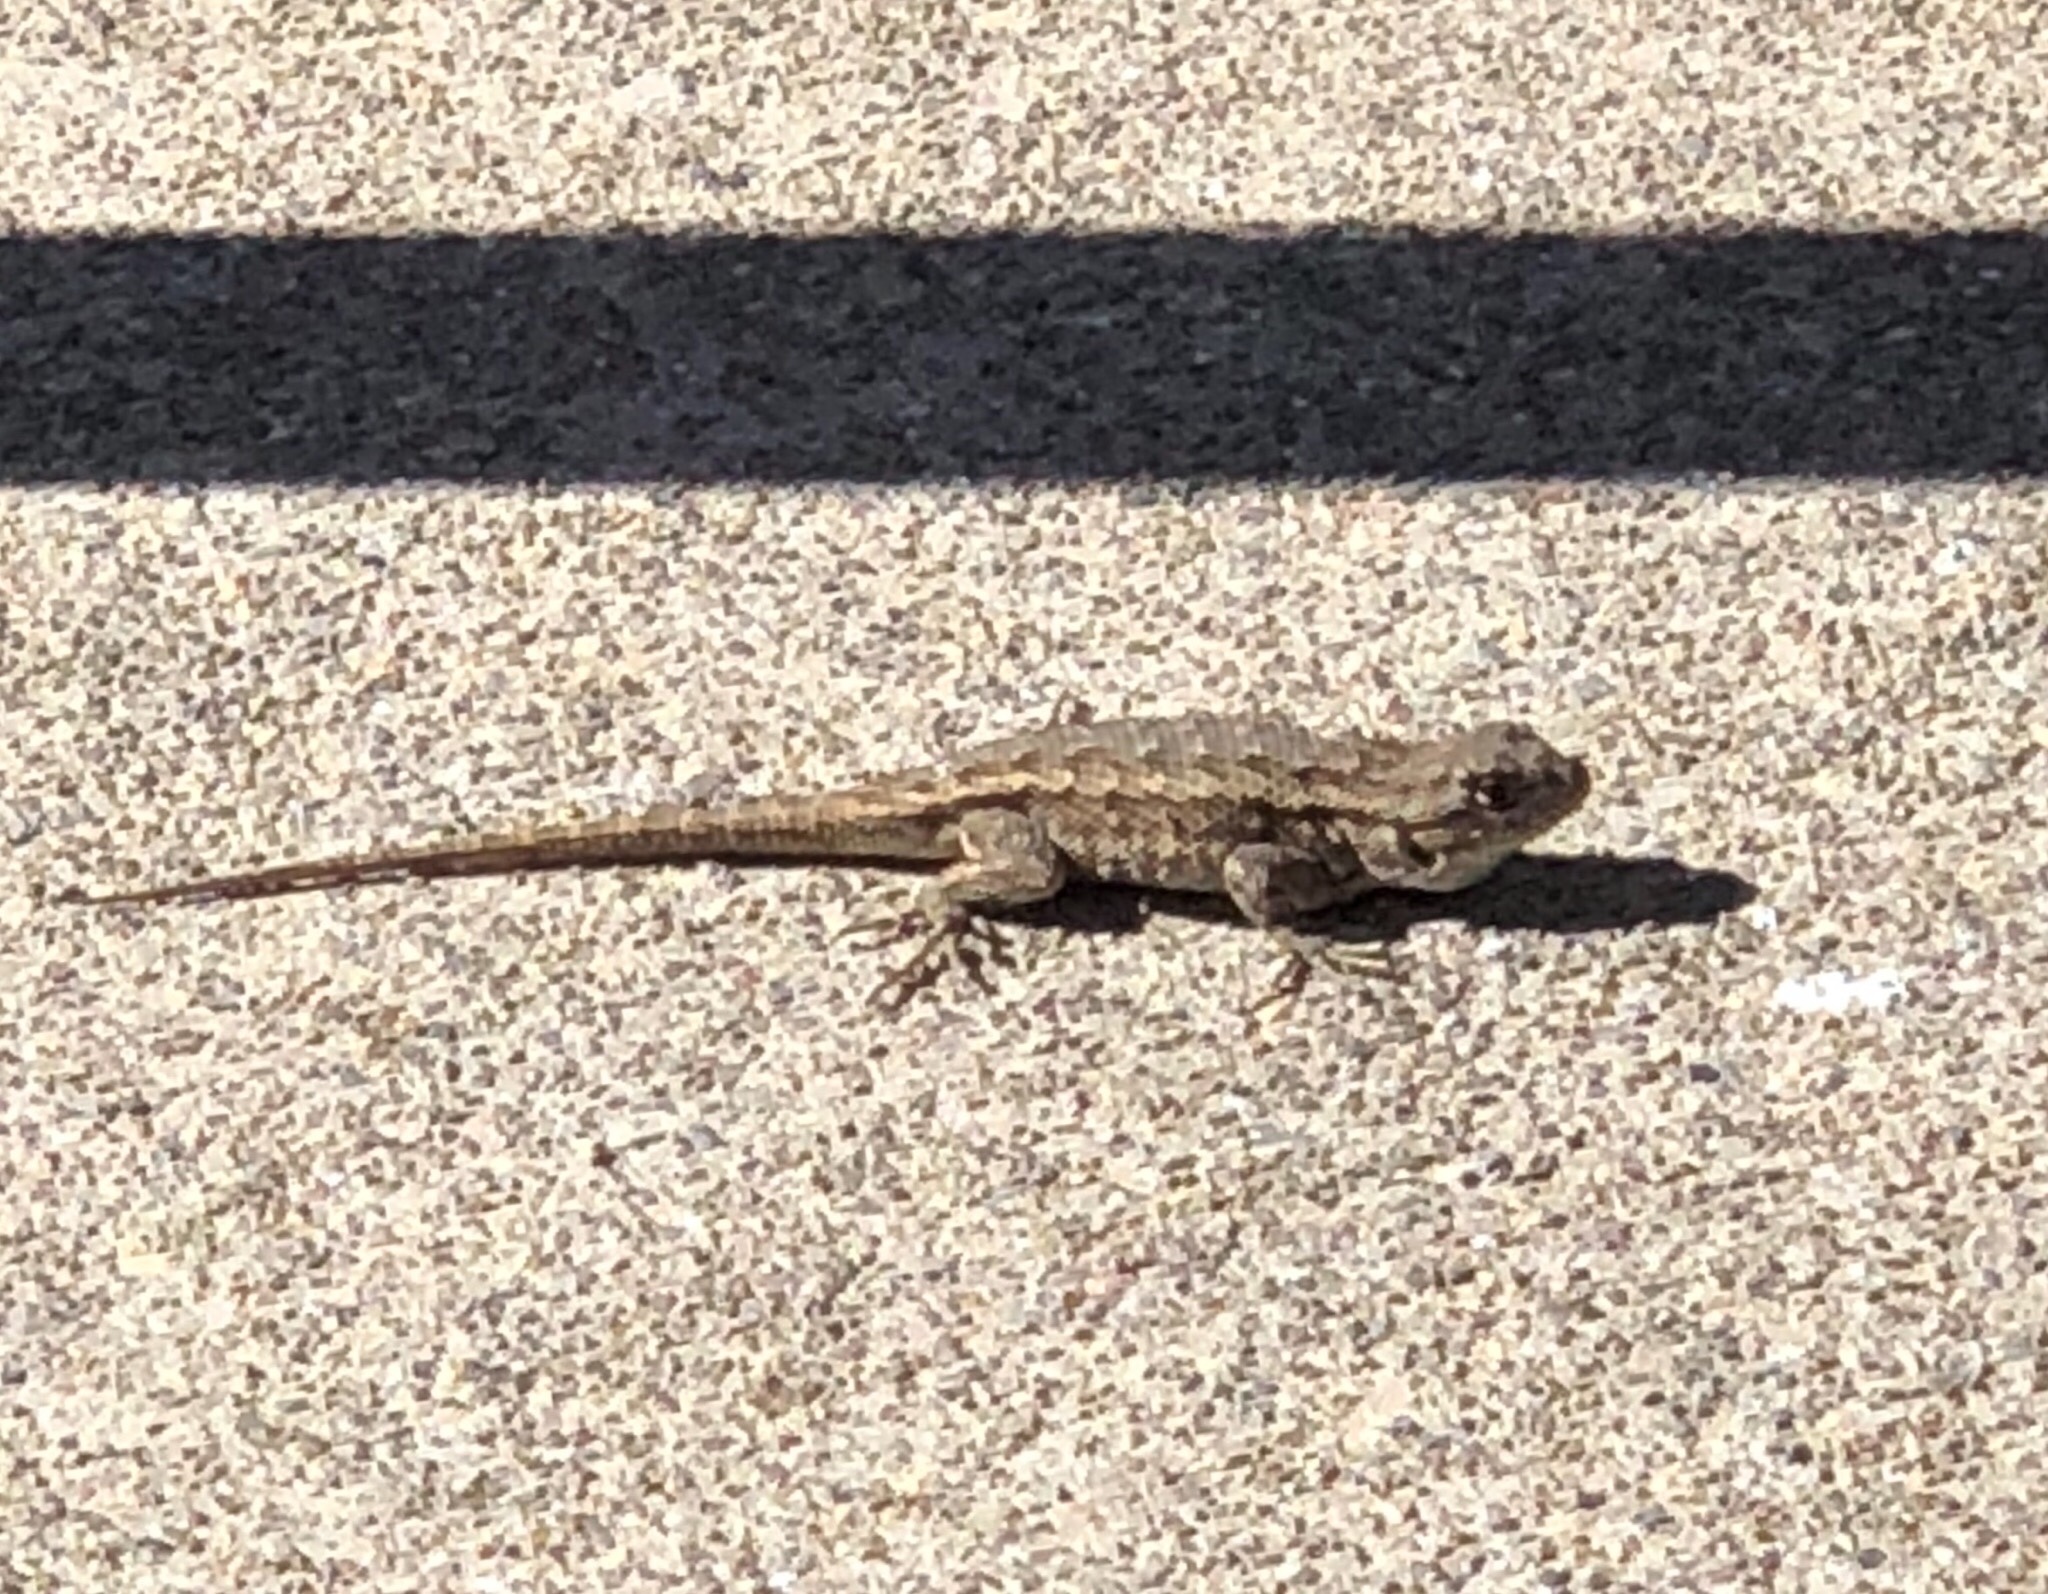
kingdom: Animalia
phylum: Chordata
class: Squamata
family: Phrynosomatidae
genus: Sceloporus
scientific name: Sceloporus occidentalis
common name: Western fence lizard
